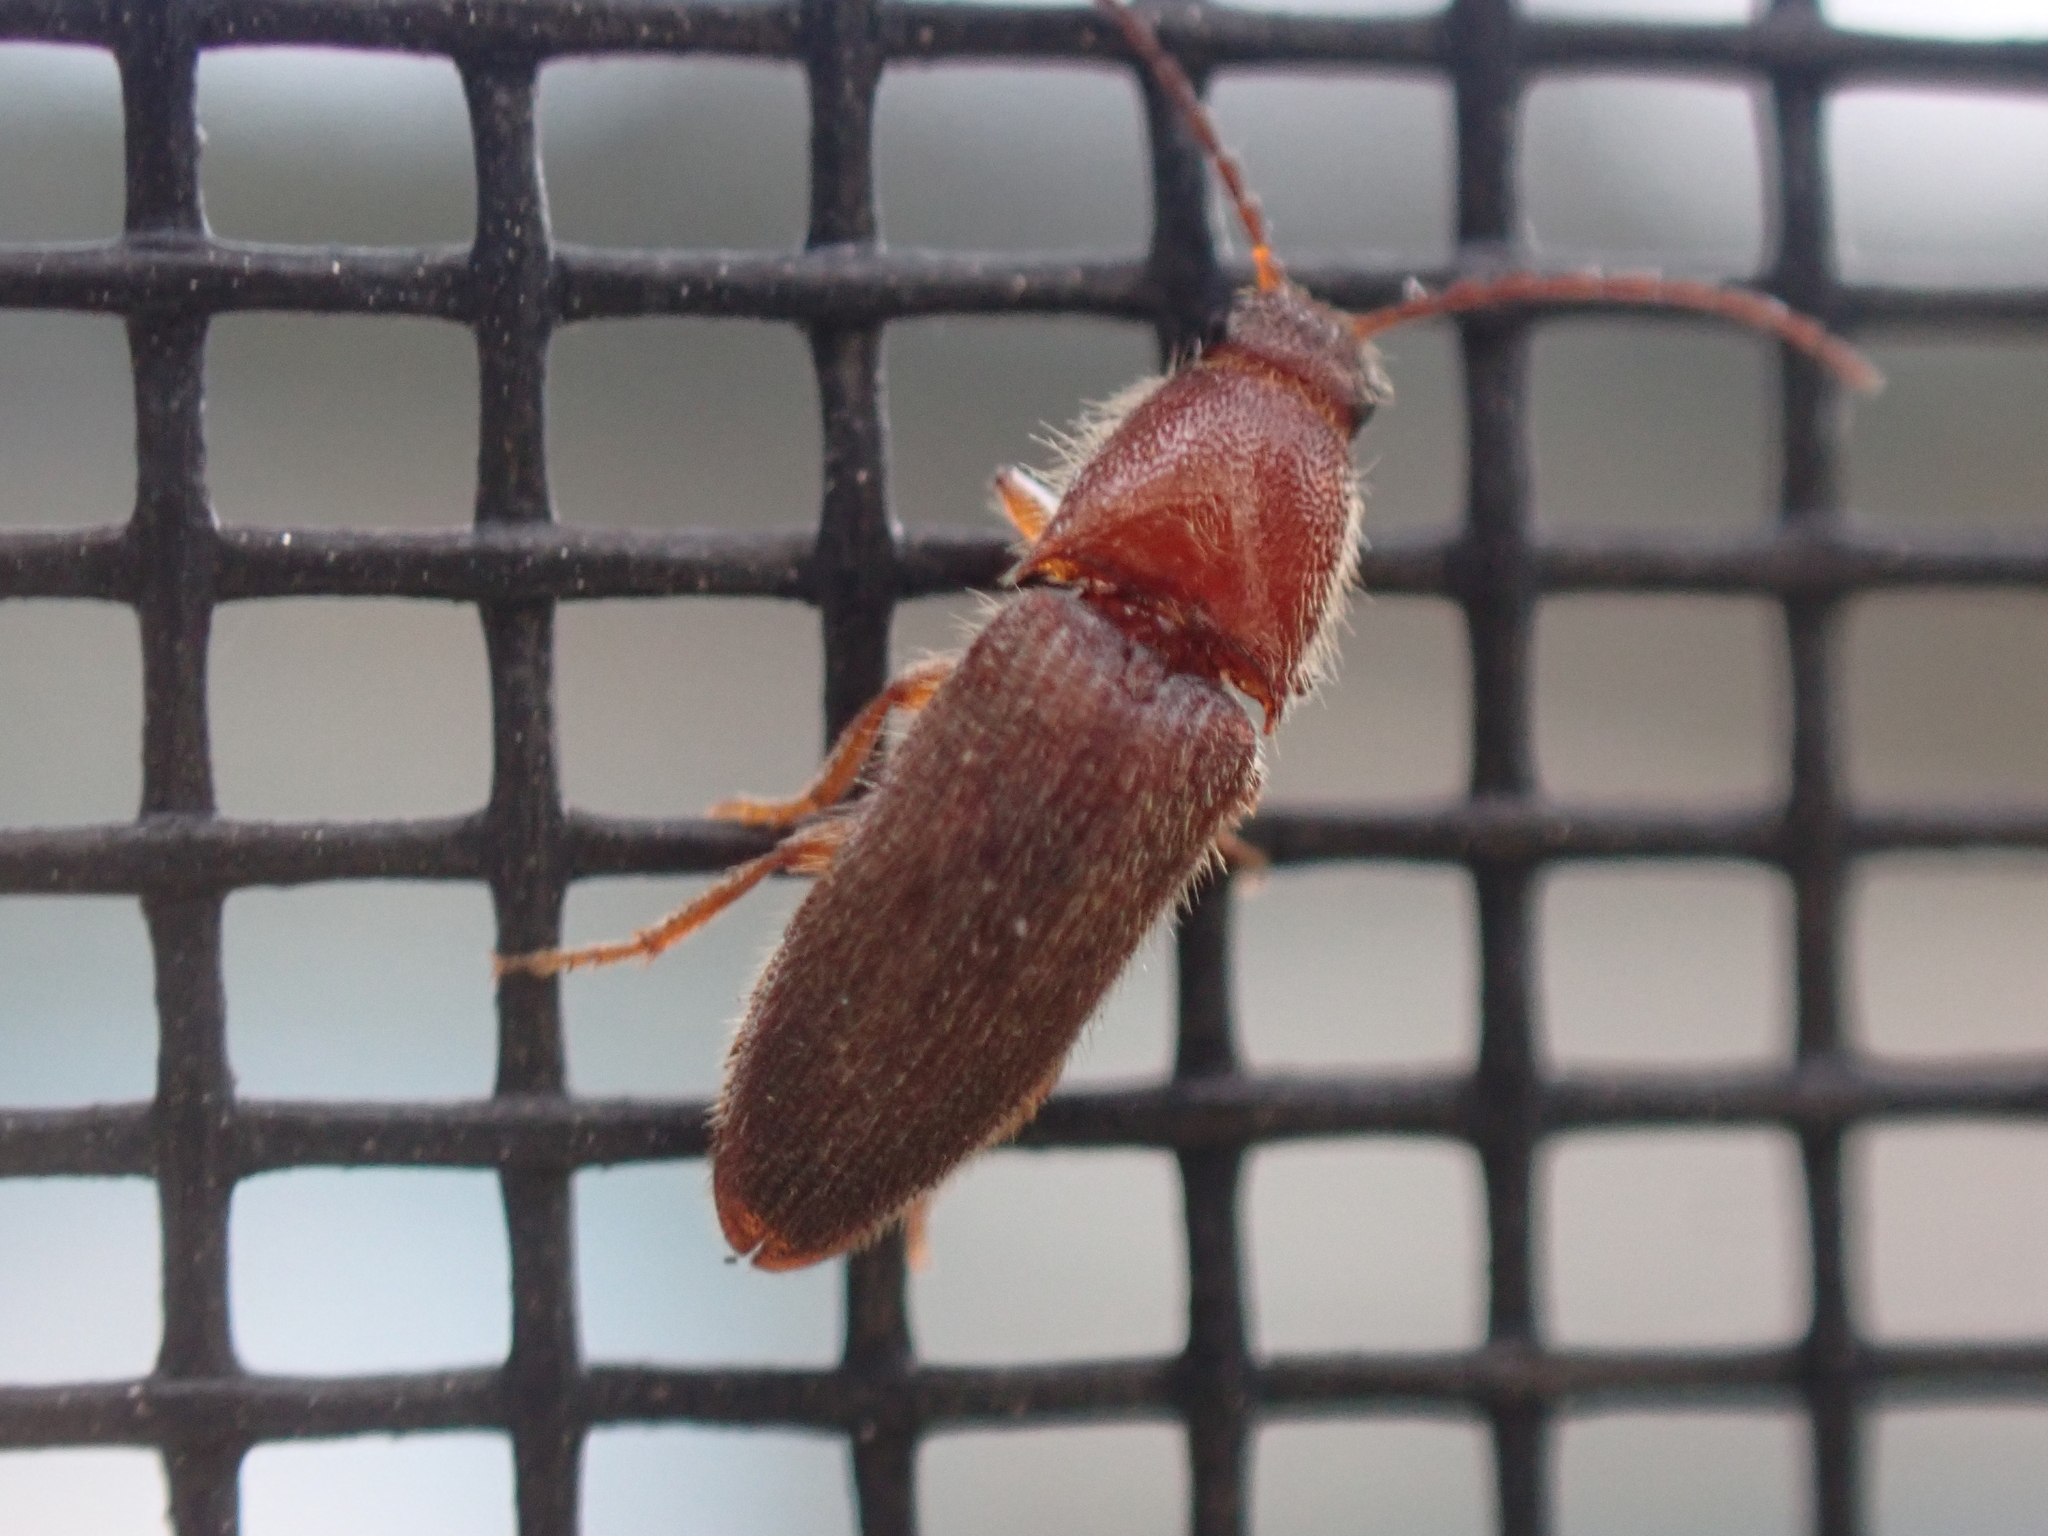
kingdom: Animalia
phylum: Arthropoda
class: Insecta
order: Coleoptera
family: Elateridae
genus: Dipropus
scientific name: Dipropus
